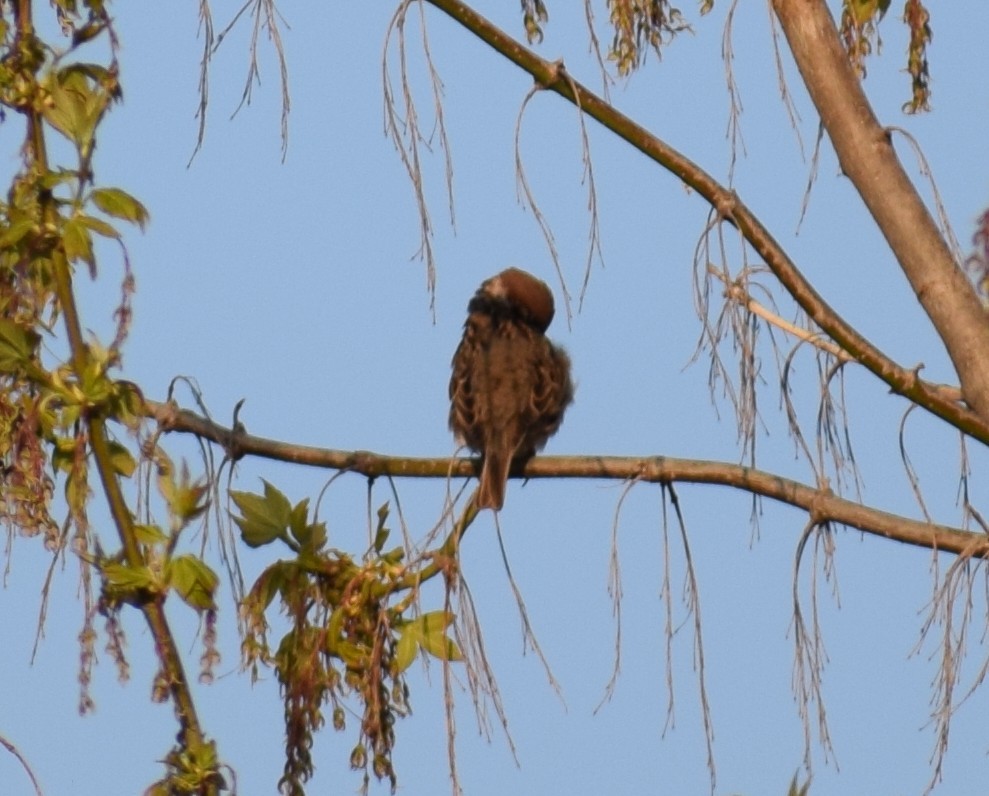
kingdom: Animalia
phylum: Chordata
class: Aves
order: Passeriformes
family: Passeridae
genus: Passer
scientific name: Passer montanus
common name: Eurasian tree sparrow
